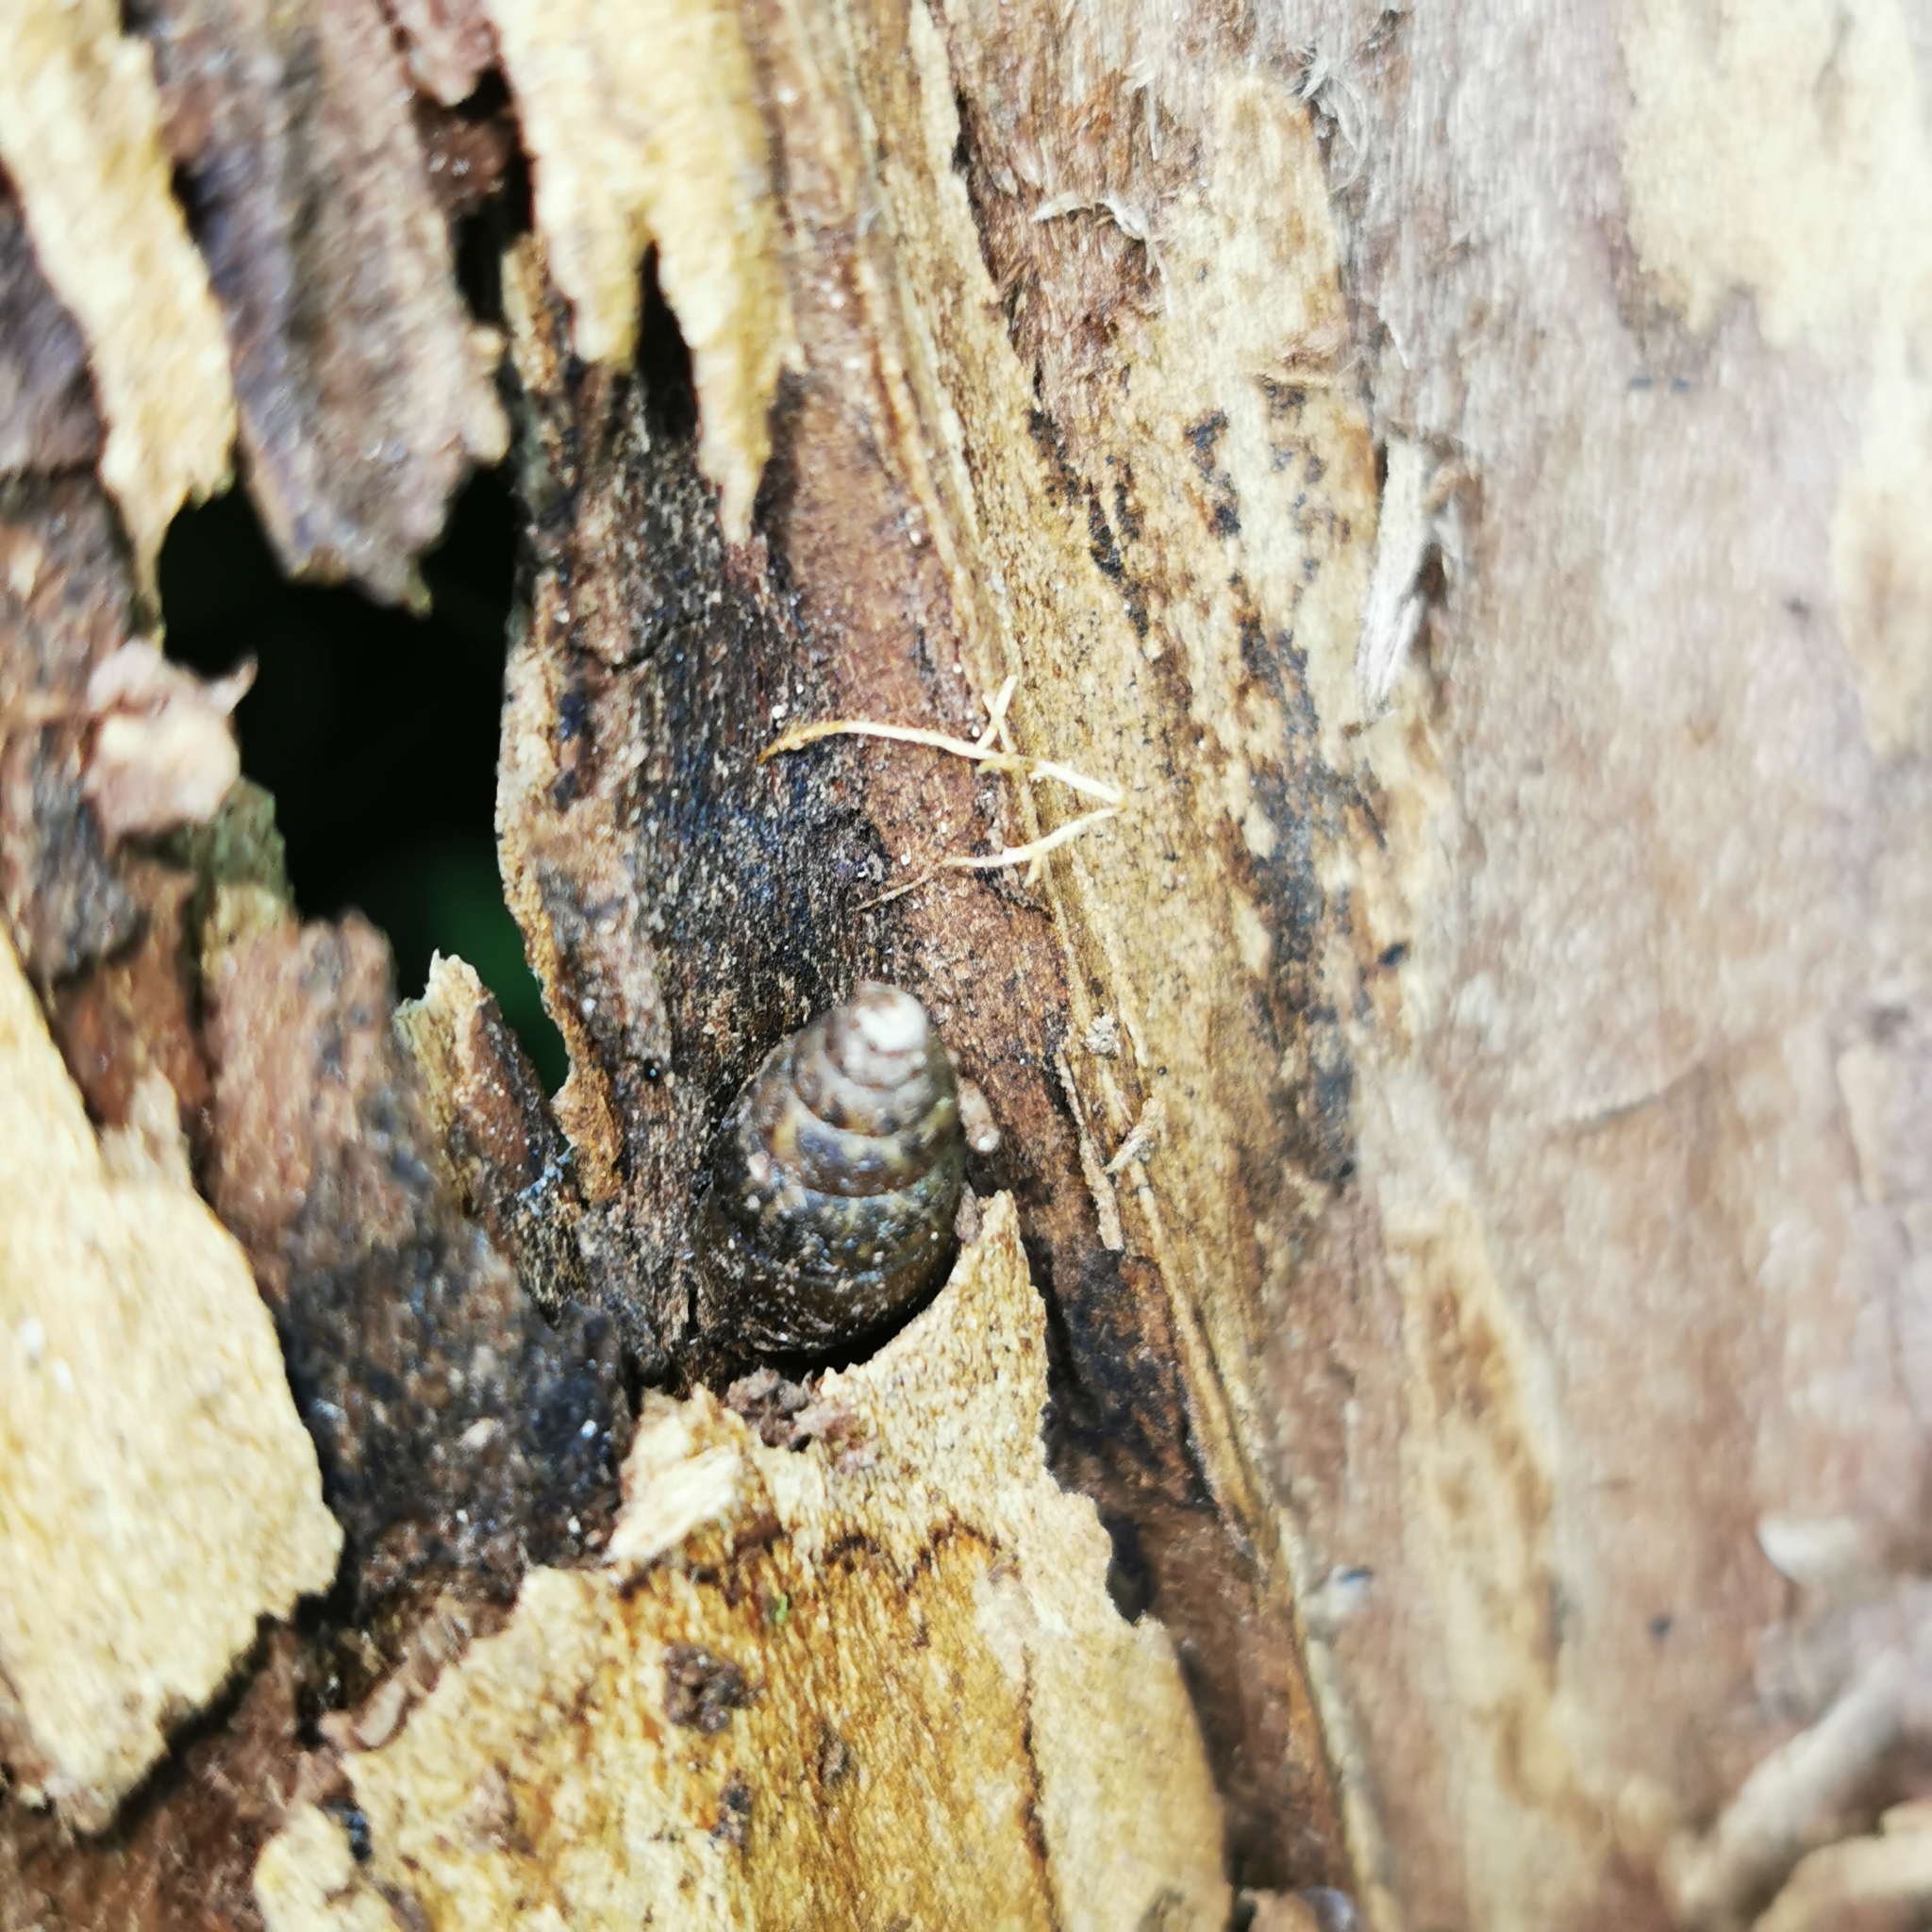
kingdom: Animalia
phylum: Mollusca
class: Gastropoda
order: Stylommatophora
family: Enidae
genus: Ena
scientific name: Ena montana
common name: Mountain bulin
